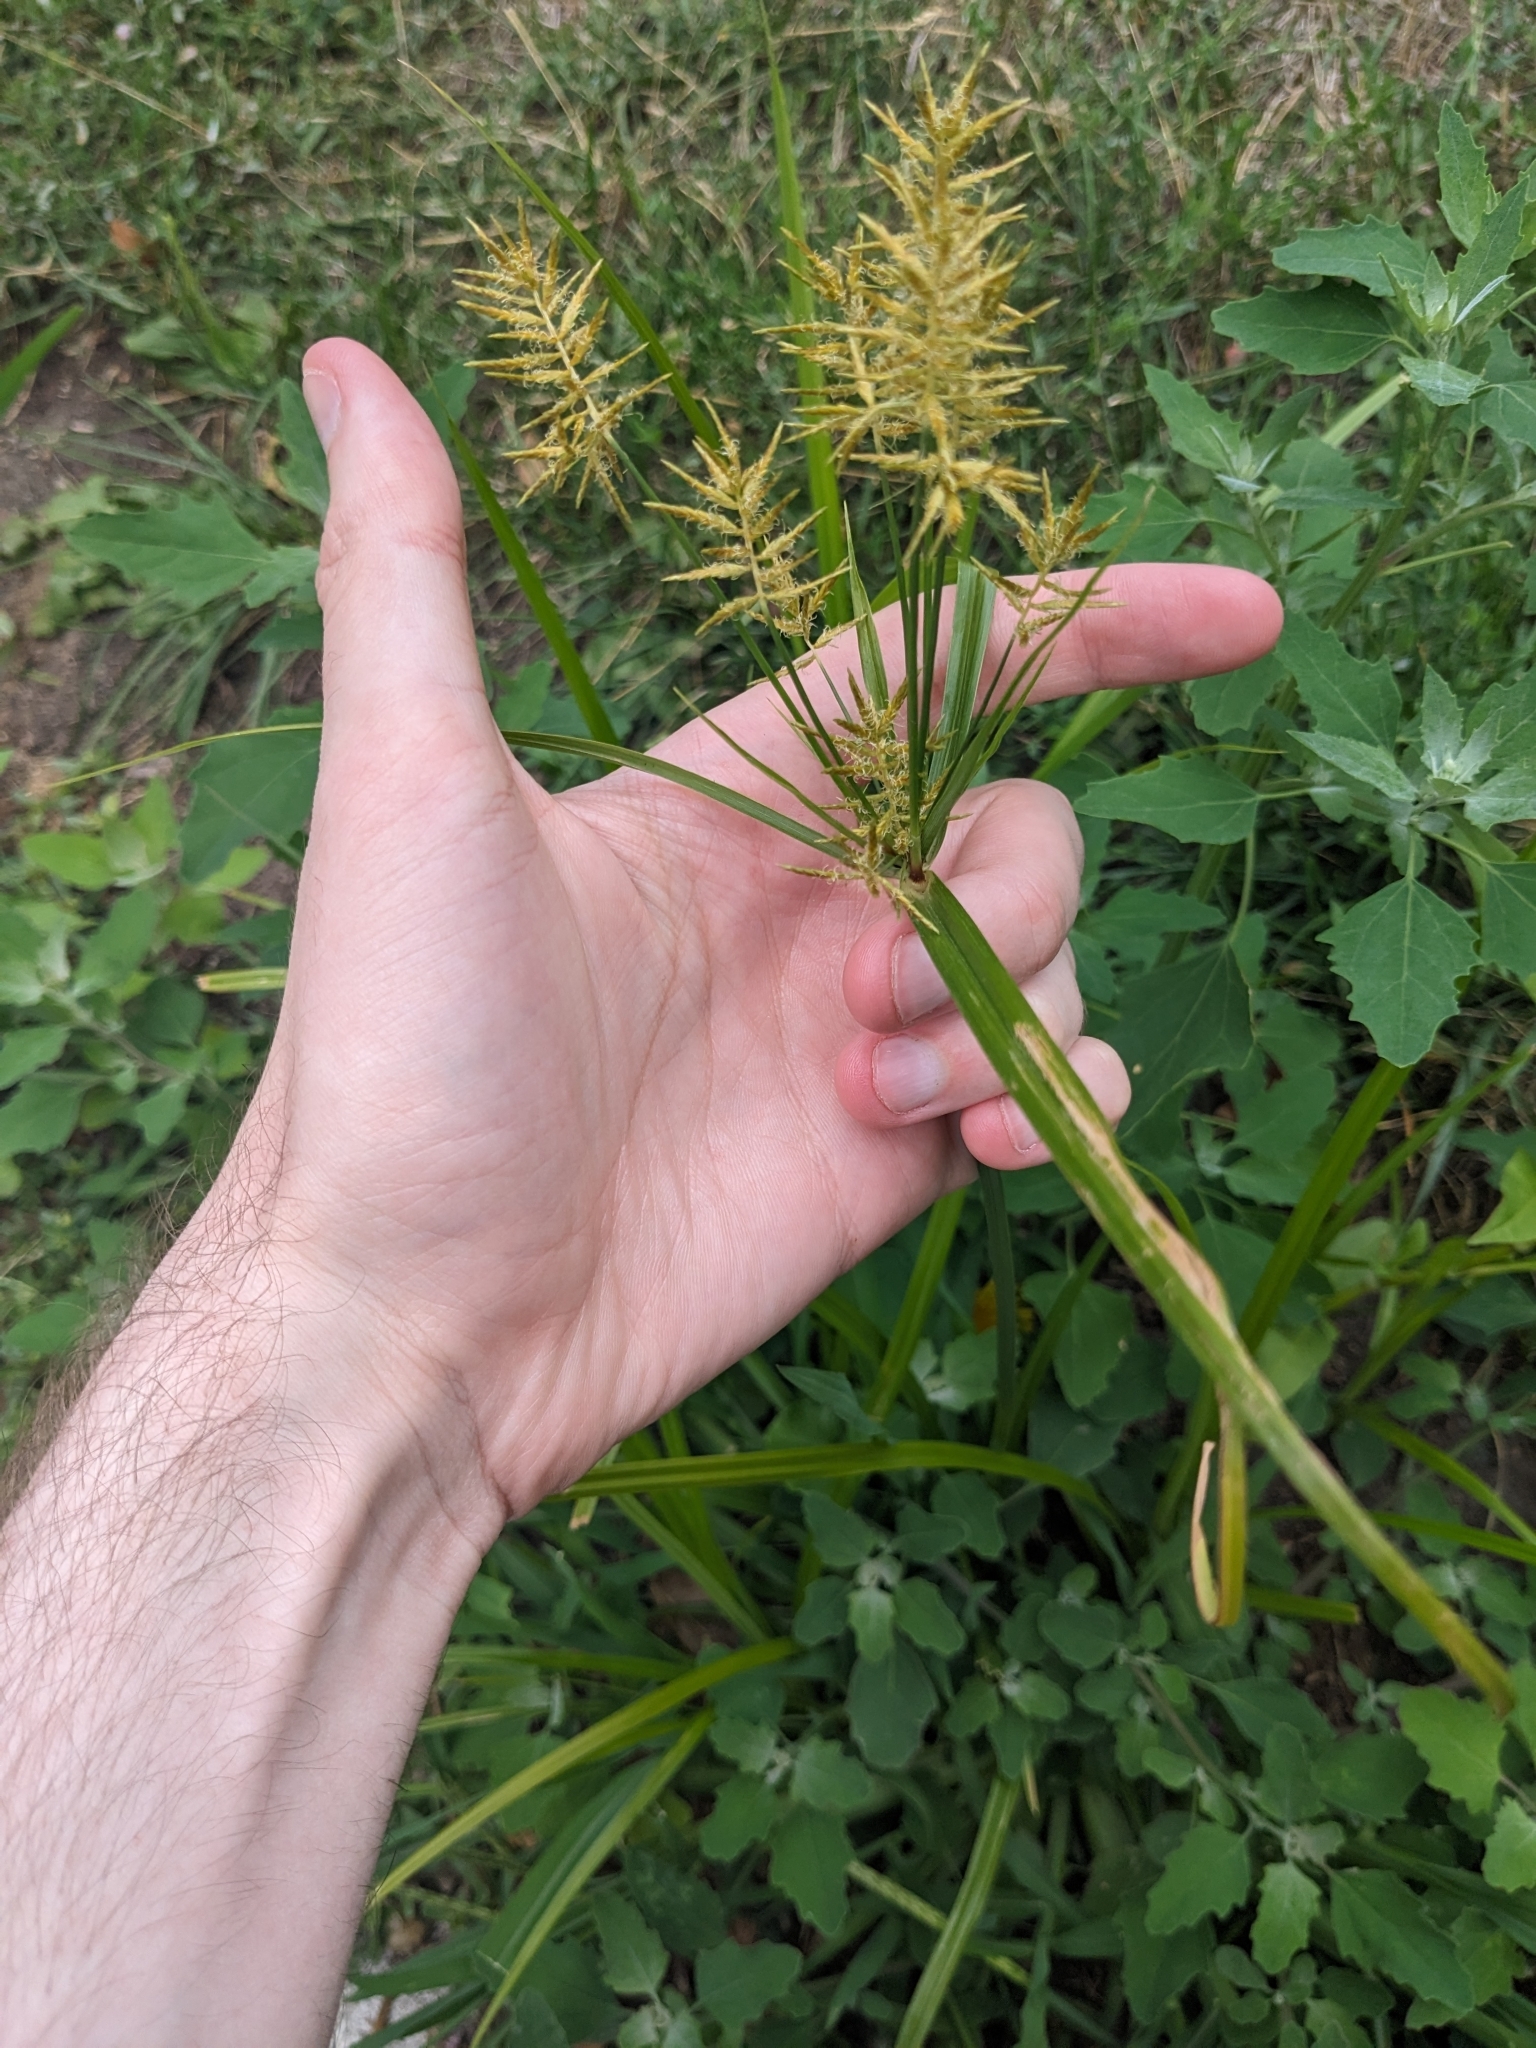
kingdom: Plantae
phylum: Tracheophyta
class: Liliopsida
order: Poales
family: Cyperaceae
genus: Cyperus
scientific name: Cyperus esculentus
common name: Yellow nutsedge
